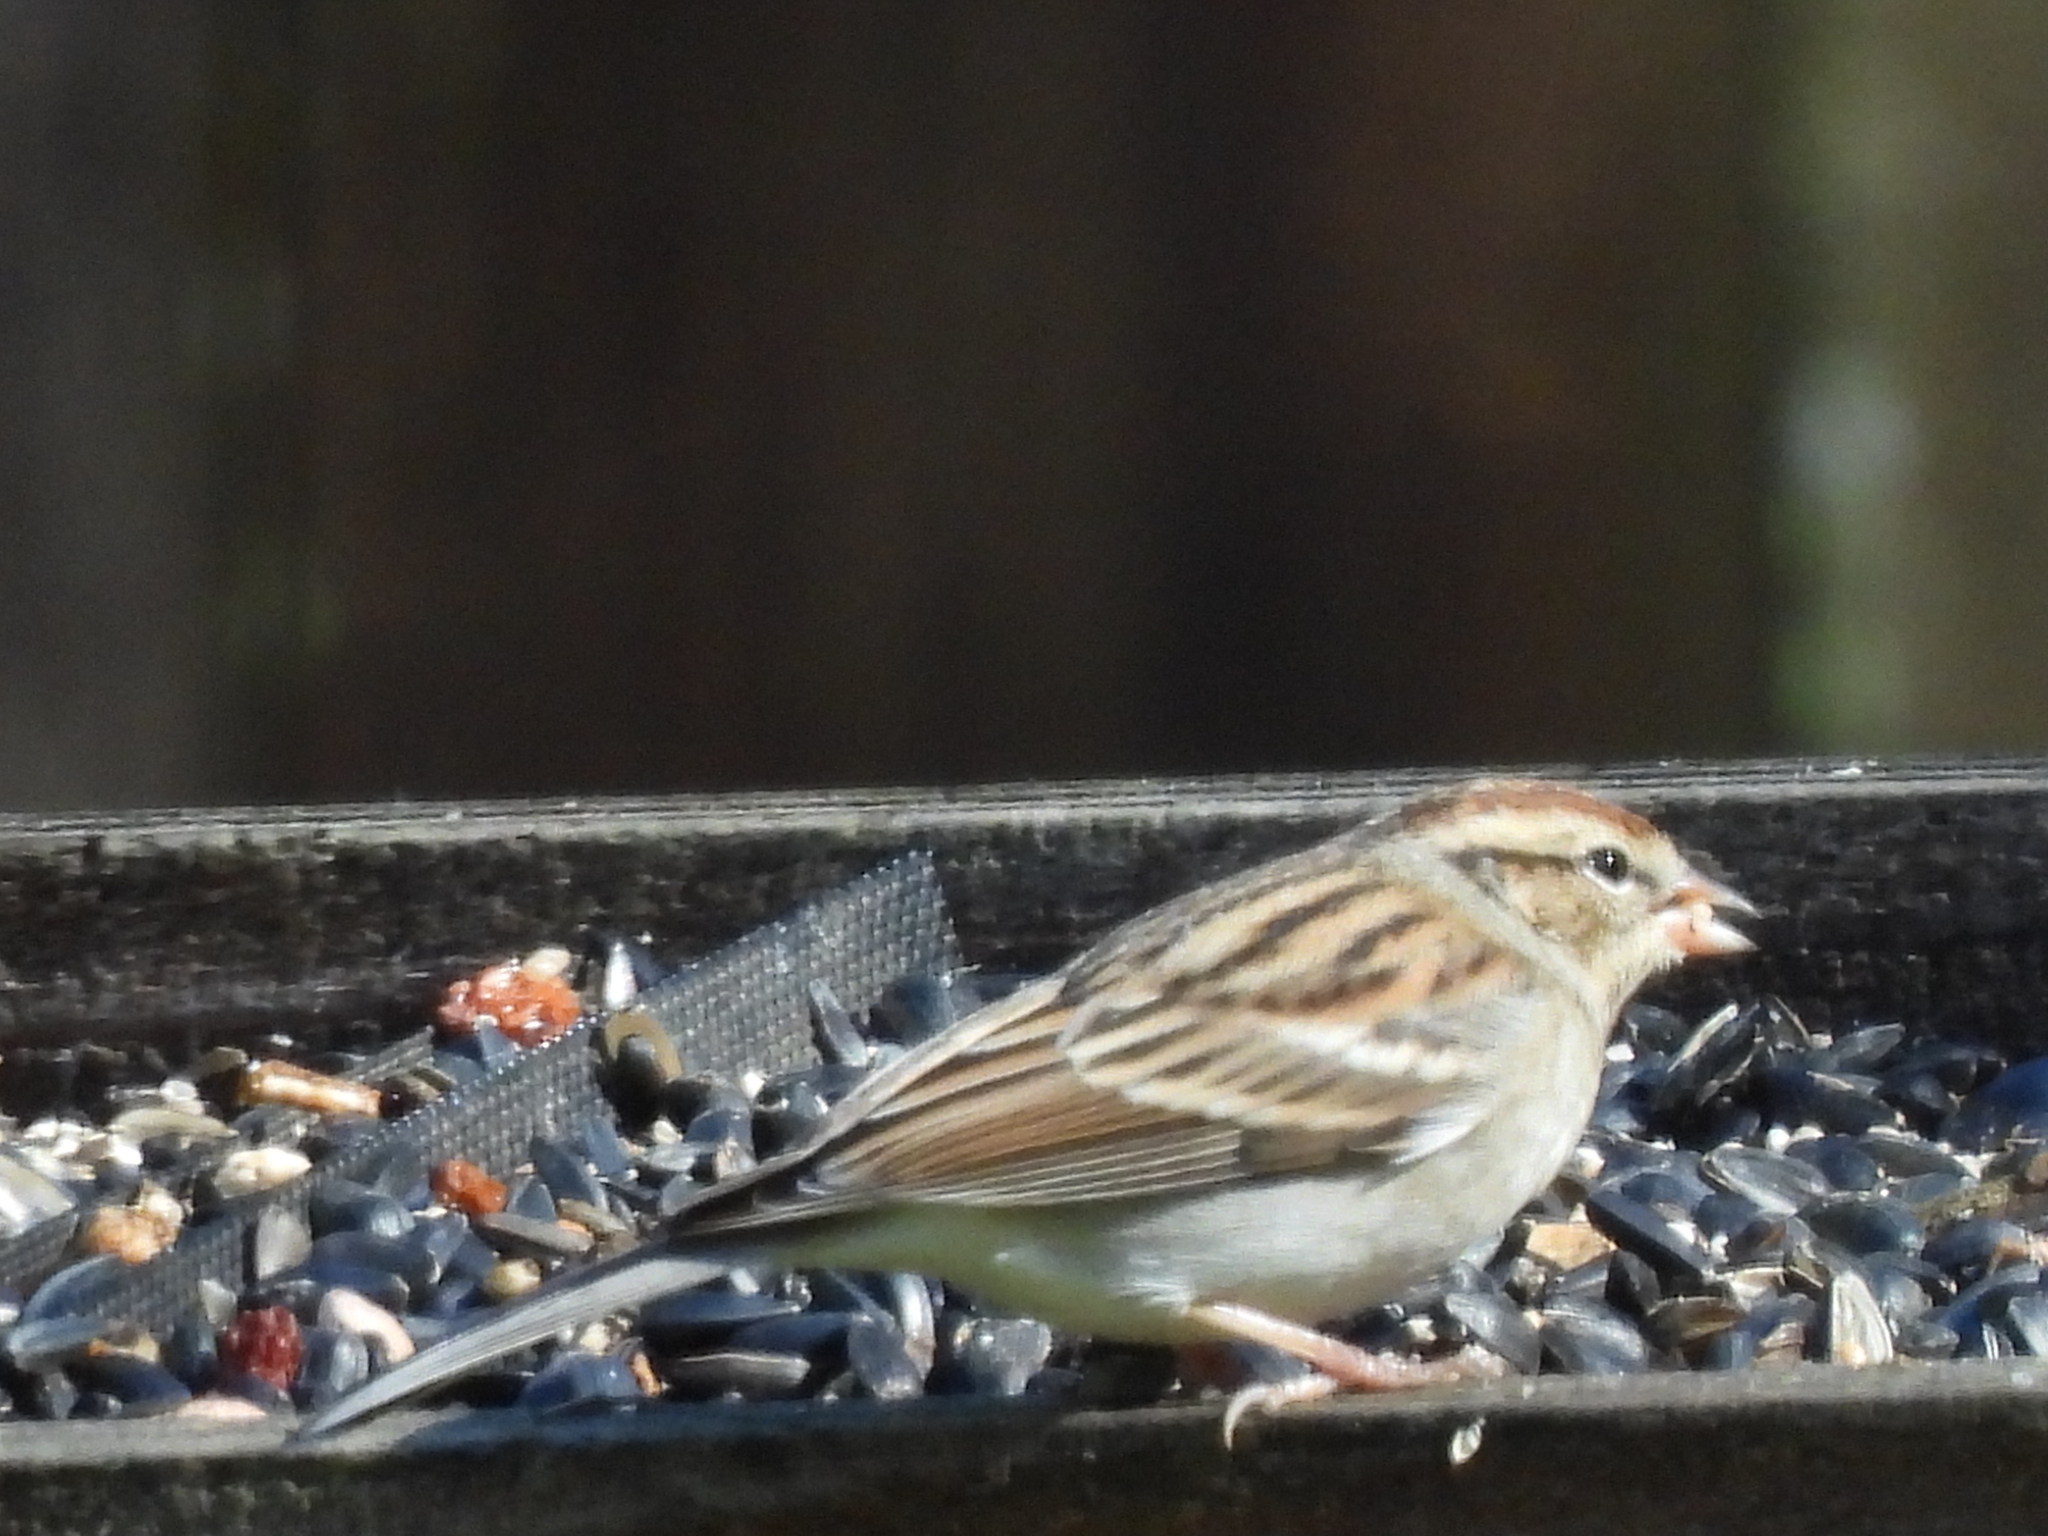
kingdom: Animalia
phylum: Chordata
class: Aves
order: Passeriformes
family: Passerellidae
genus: Spizella
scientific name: Spizella passerina
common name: Chipping sparrow
